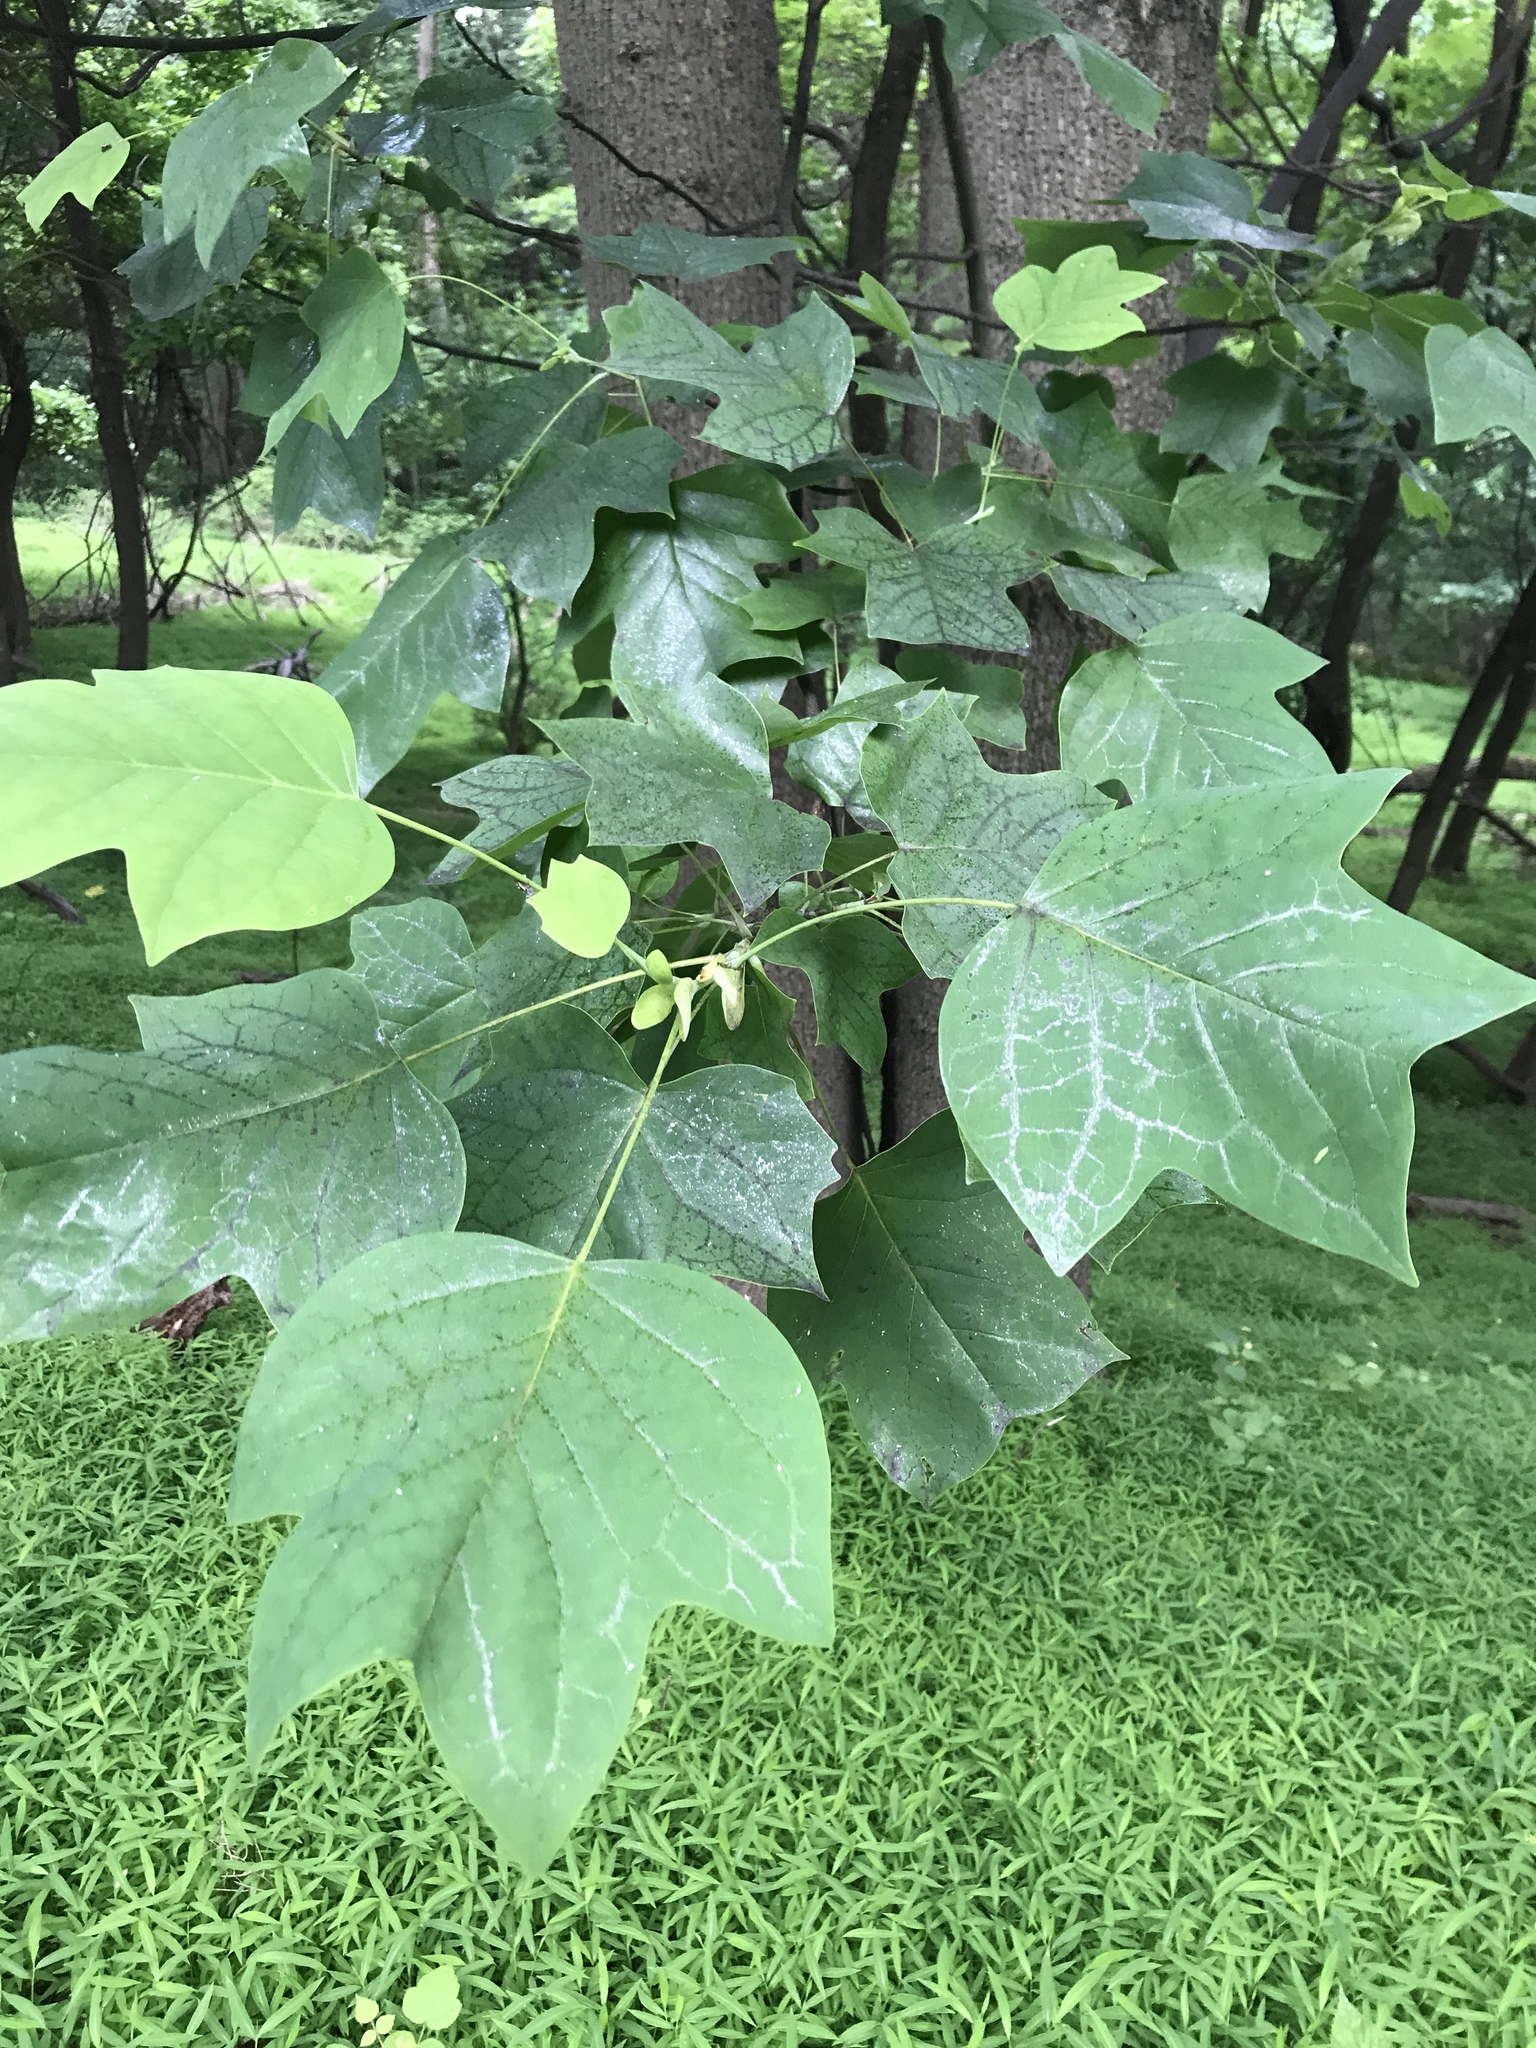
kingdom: Plantae
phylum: Tracheophyta
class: Magnoliopsida
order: Magnoliales
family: Magnoliaceae
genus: Liriodendron
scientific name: Liriodendron tulipifera
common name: Tulip tree
